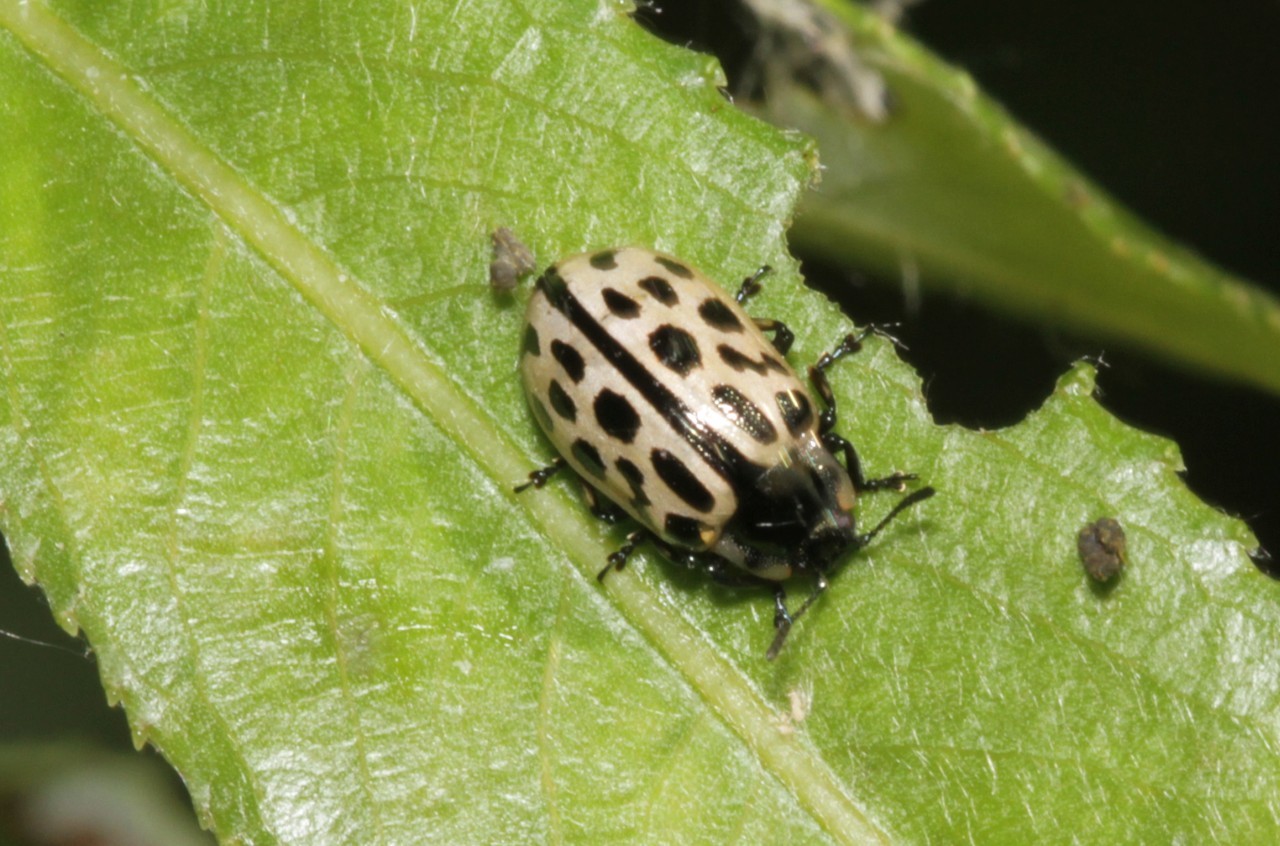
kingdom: Animalia
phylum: Arthropoda
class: Insecta
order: Coleoptera
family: Chrysomelidae
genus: Chrysomela
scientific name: Chrysomela vigintipunctata
